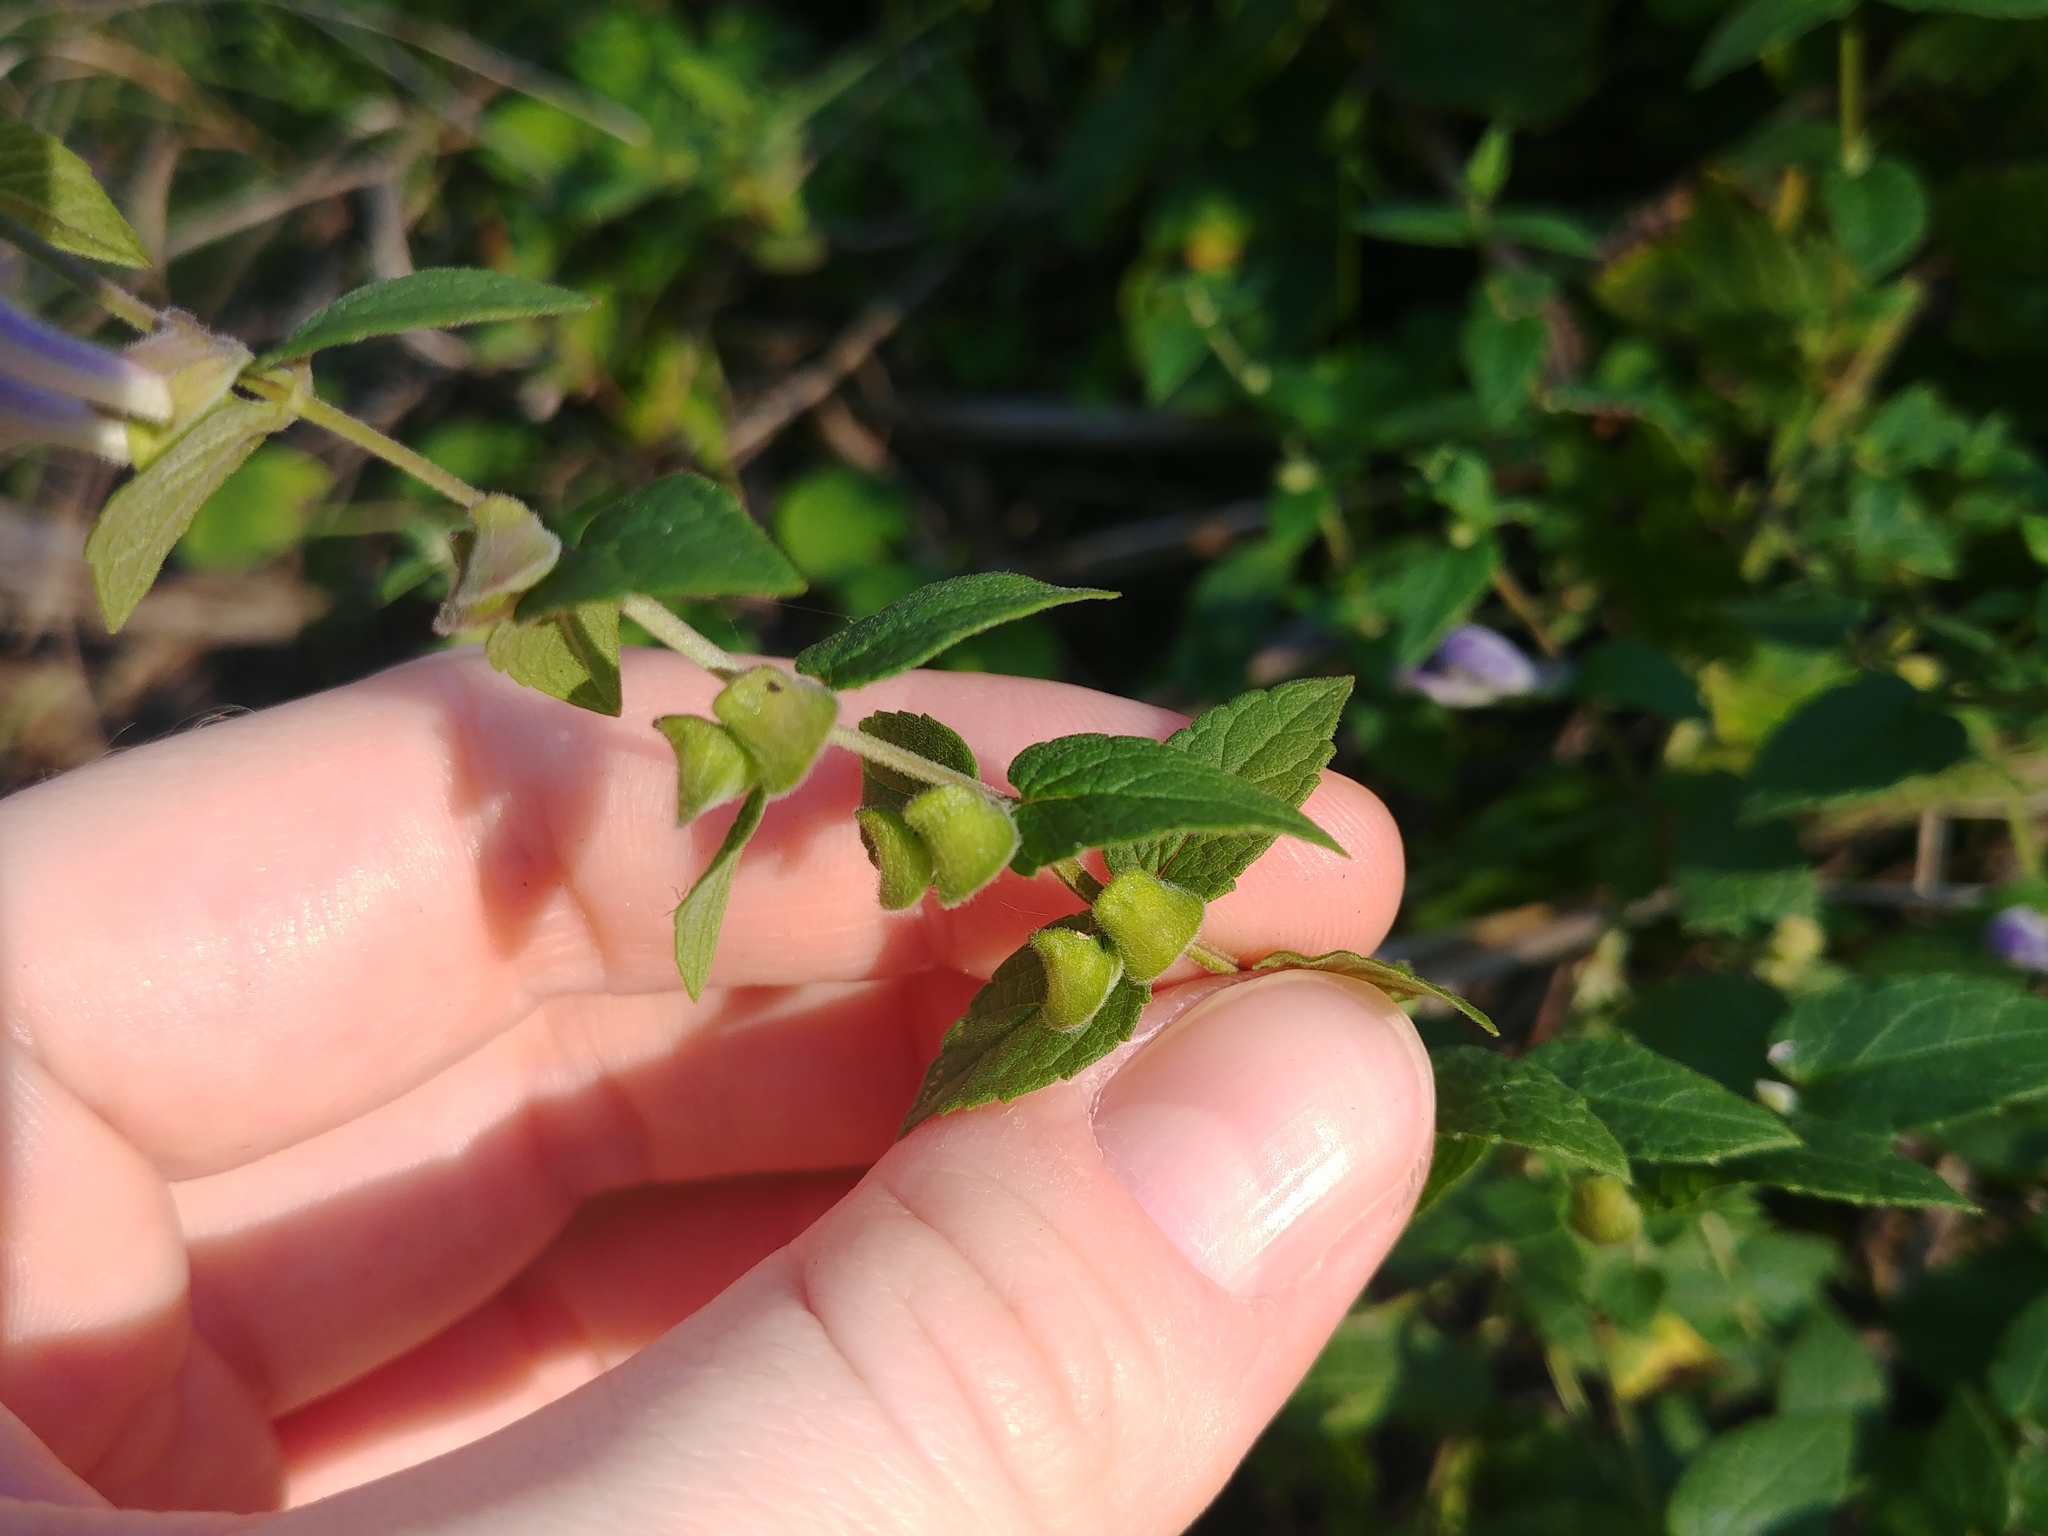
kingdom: Plantae
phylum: Tracheophyta
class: Magnoliopsida
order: Lamiales
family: Lamiaceae
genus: Scutellaria
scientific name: Scutellaria galericulata
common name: Skullcap
